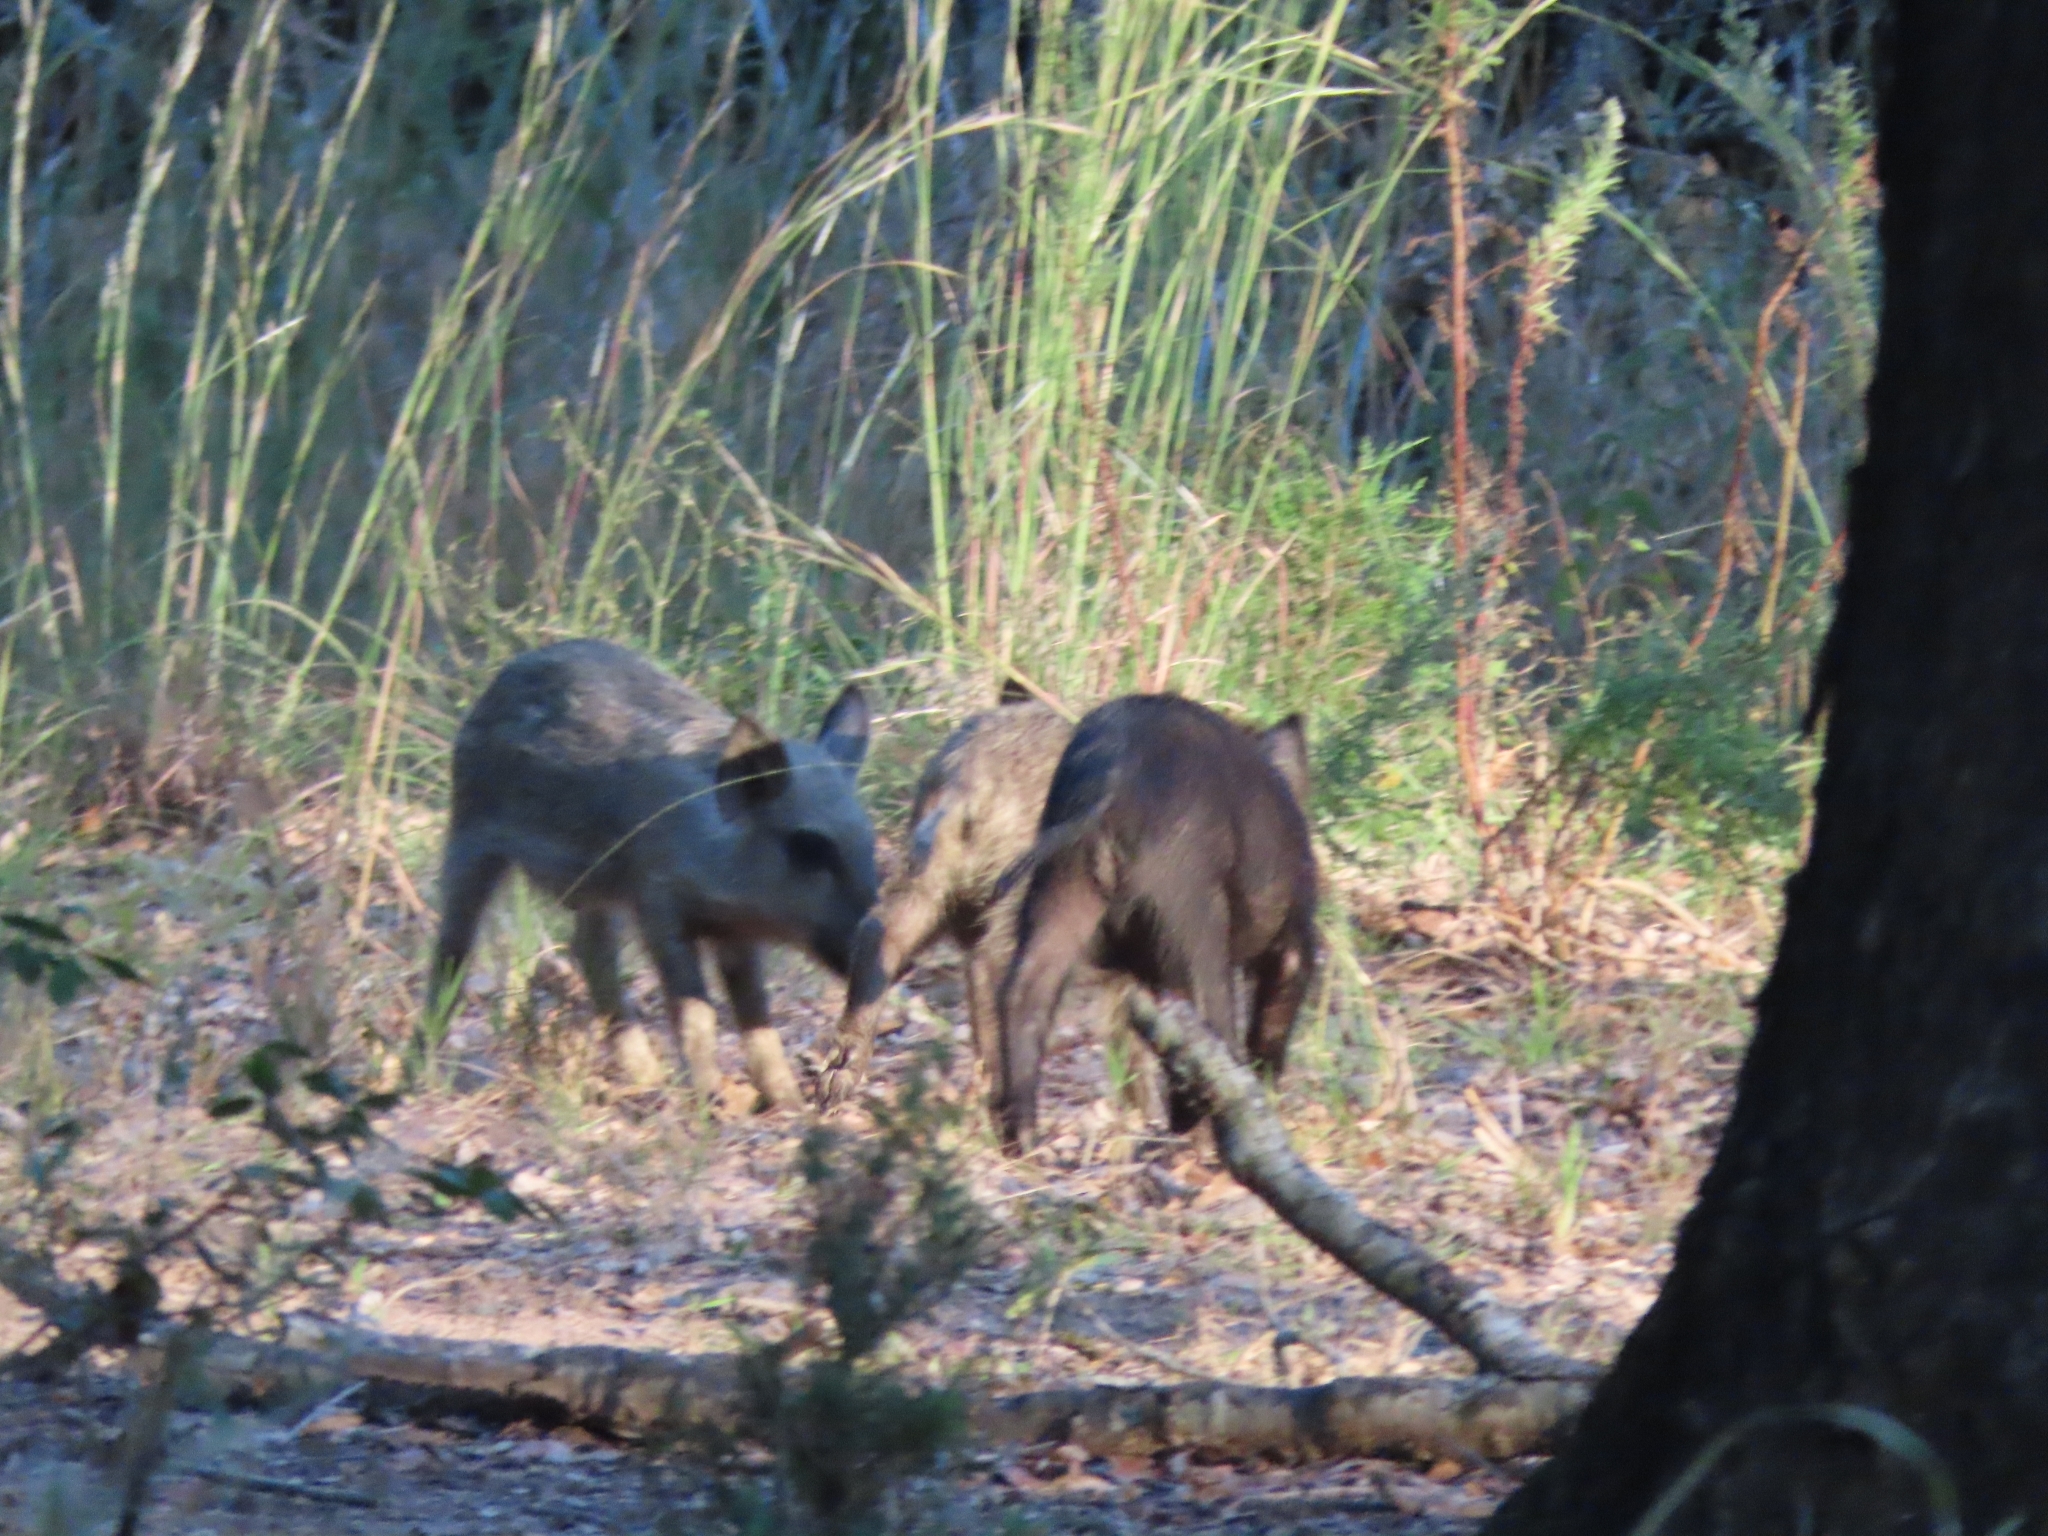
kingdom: Animalia
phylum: Chordata
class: Mammalia
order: Artiodactyla
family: Suidae
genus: Sus
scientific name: Sus scrofa
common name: Wild boar
